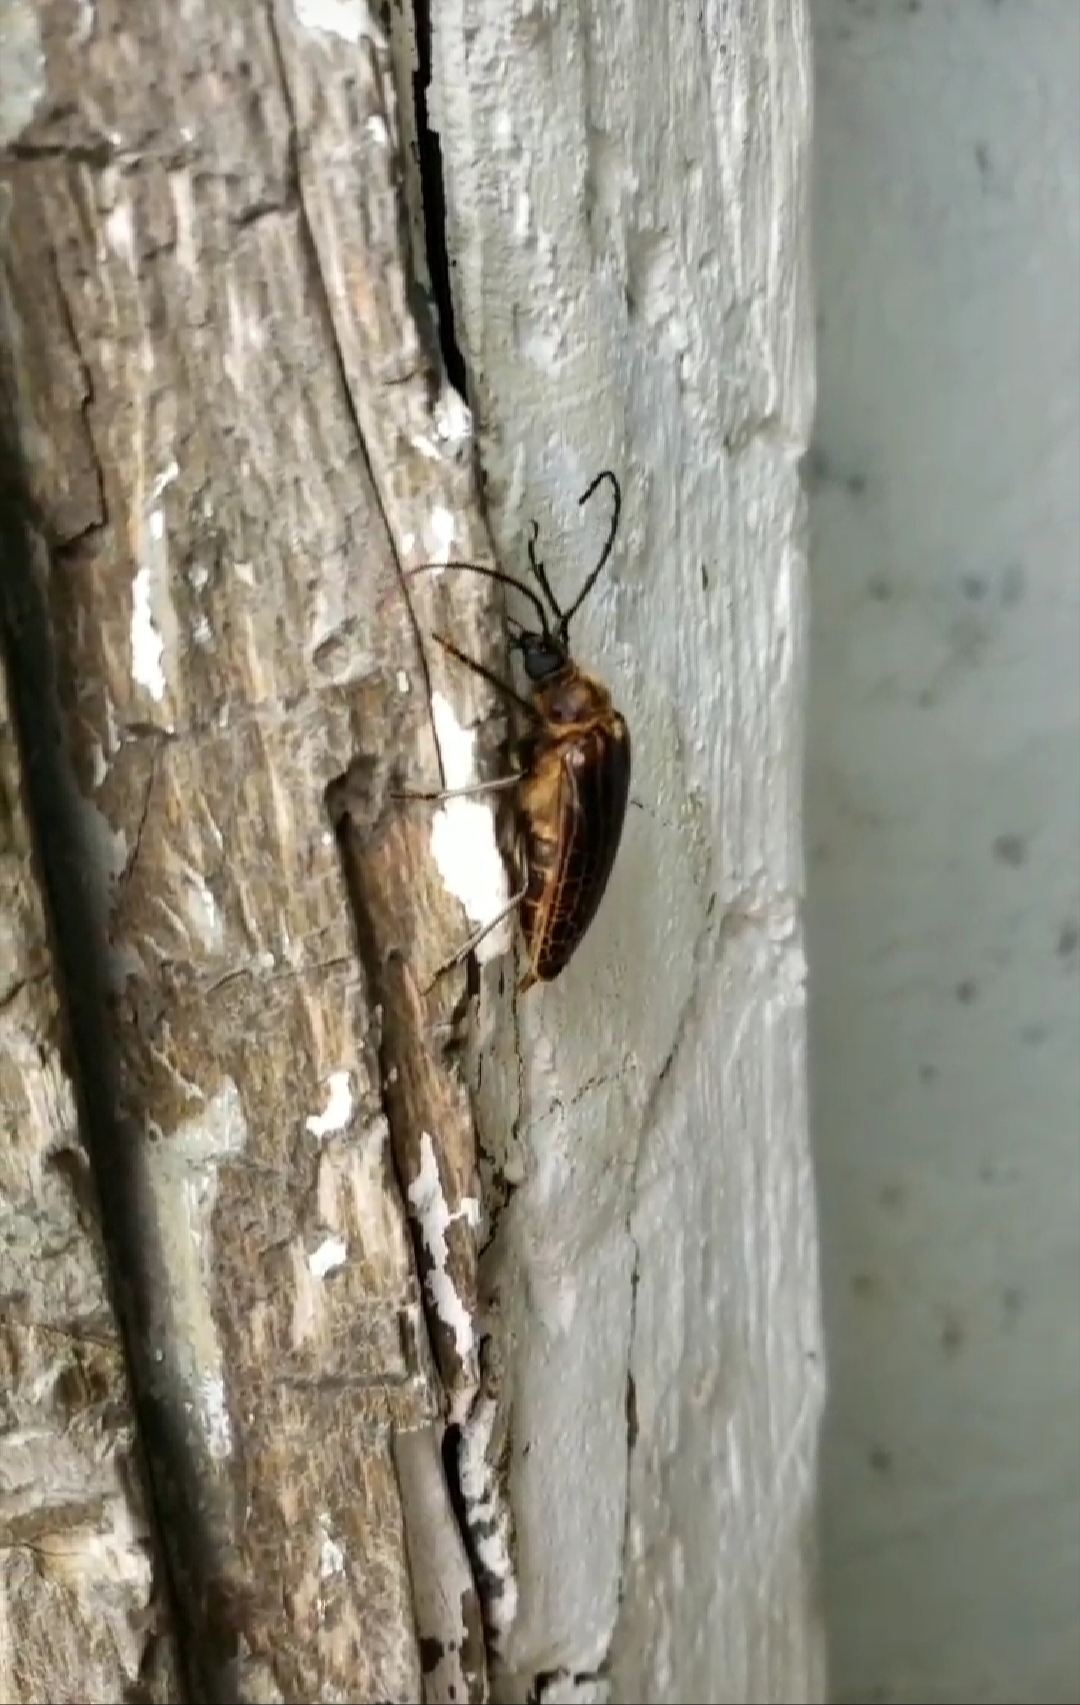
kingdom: Animalia
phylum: Arthropoda
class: Insecta
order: Coleoptera
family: Cerambycidae
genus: Prionoplus
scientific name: Prionoplus reticularis
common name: Huhu beetle
